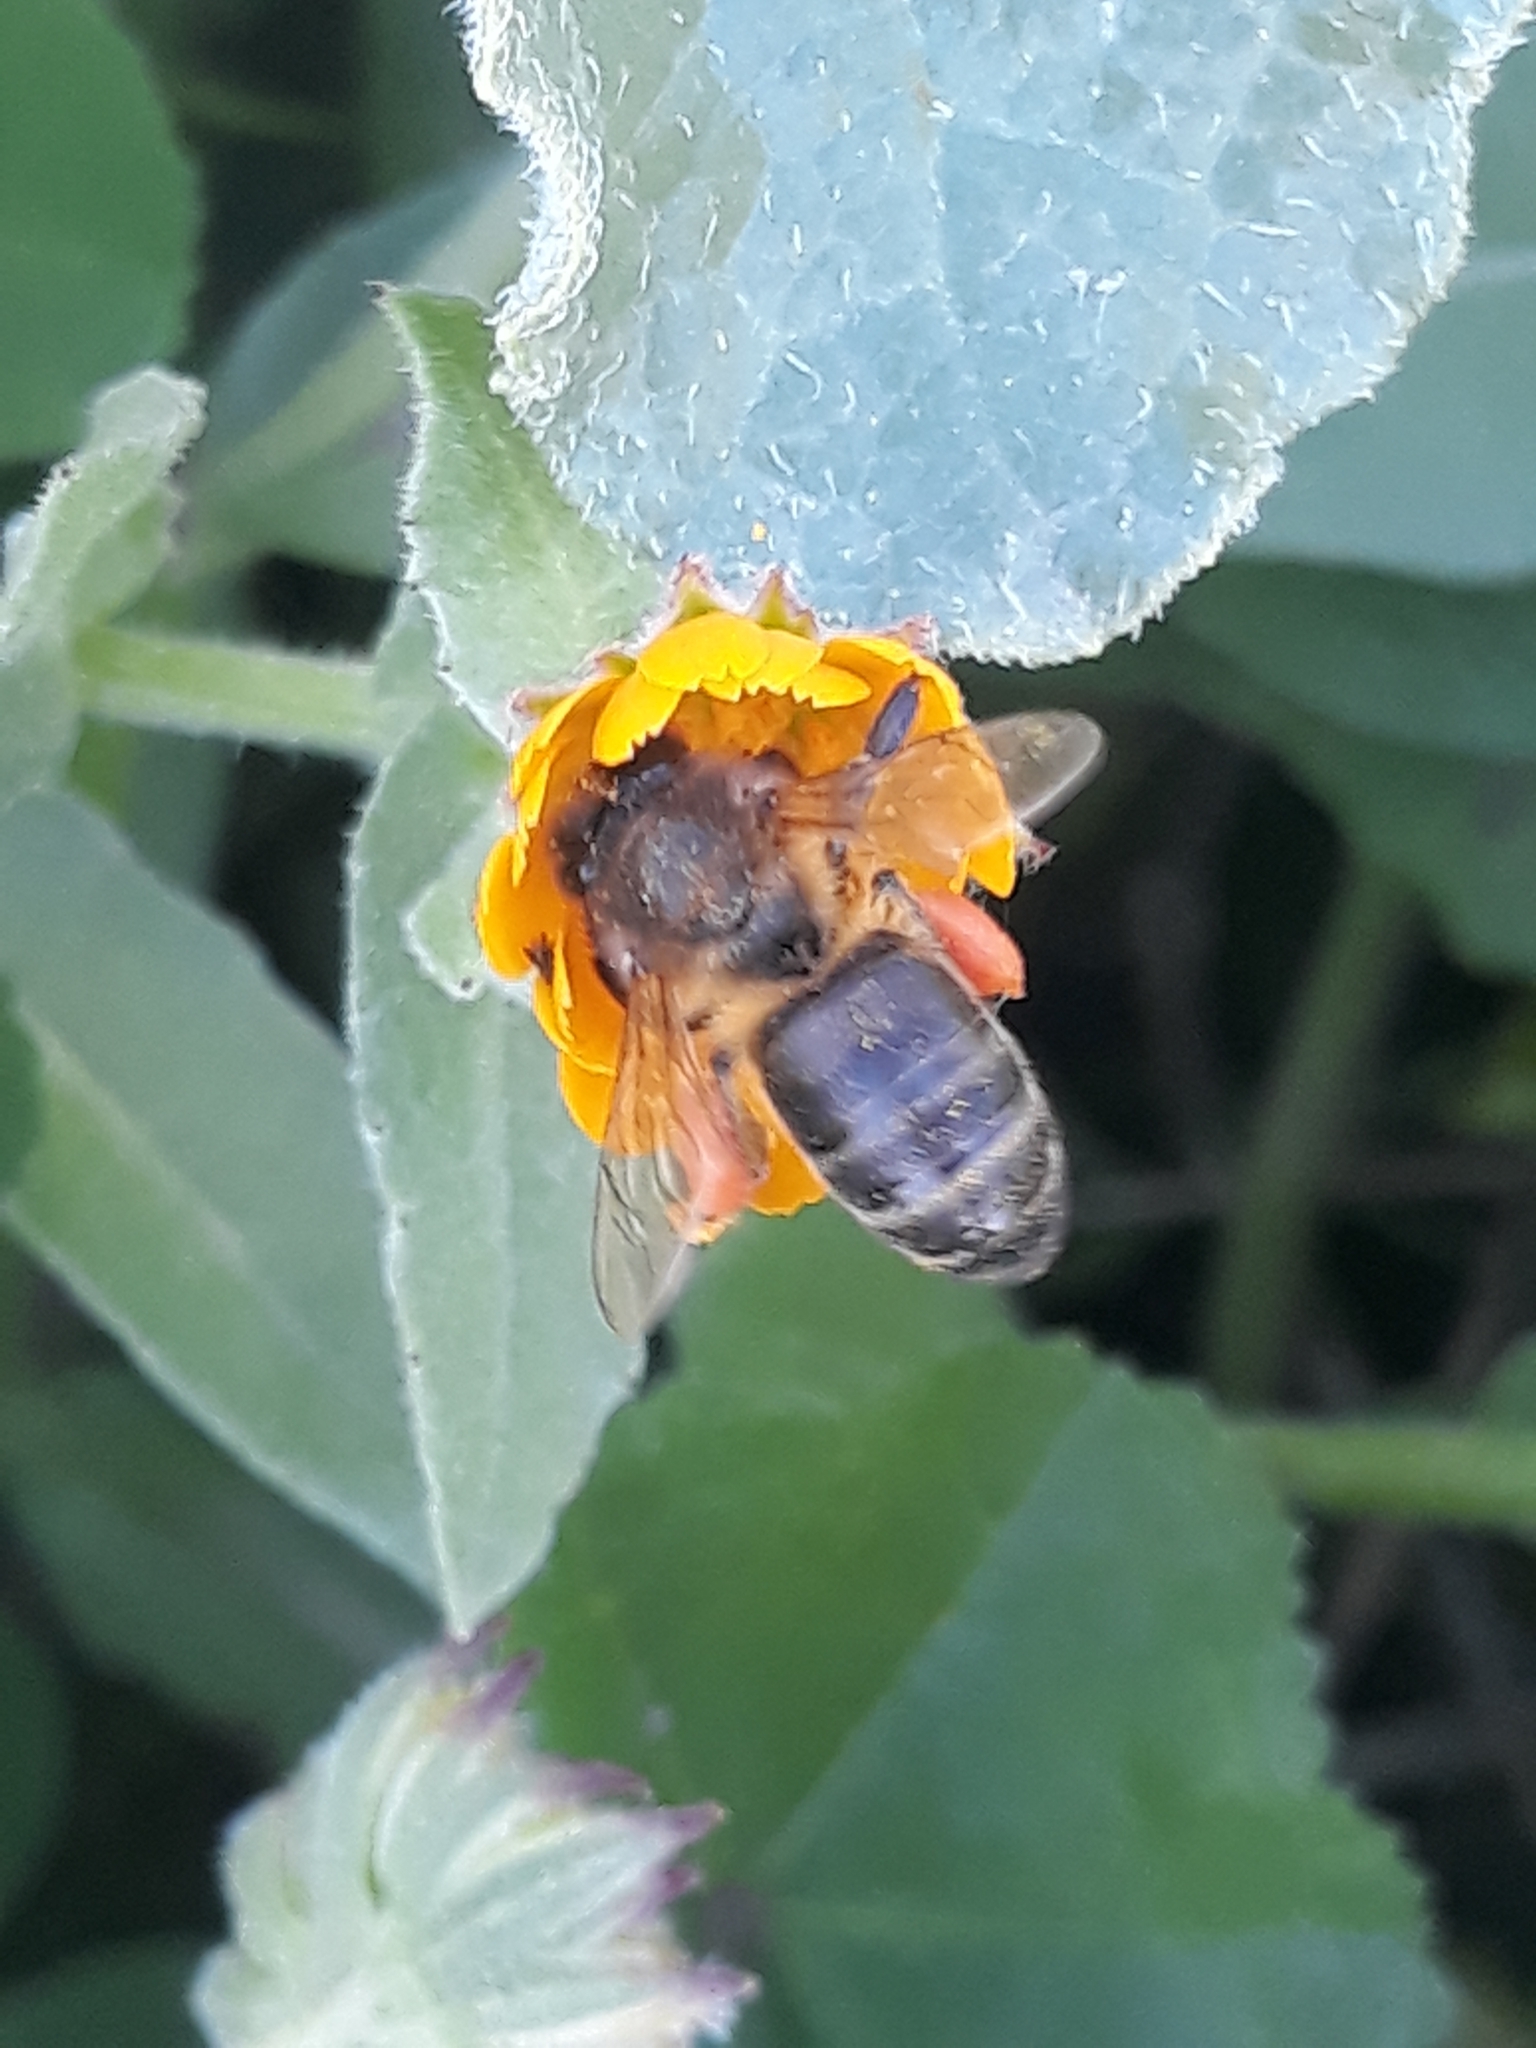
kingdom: Animalia
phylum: Arthropoda
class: Insecta
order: Hymenoptera
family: Apidae
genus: Apis
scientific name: Apis mellifera
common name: Honey bee
